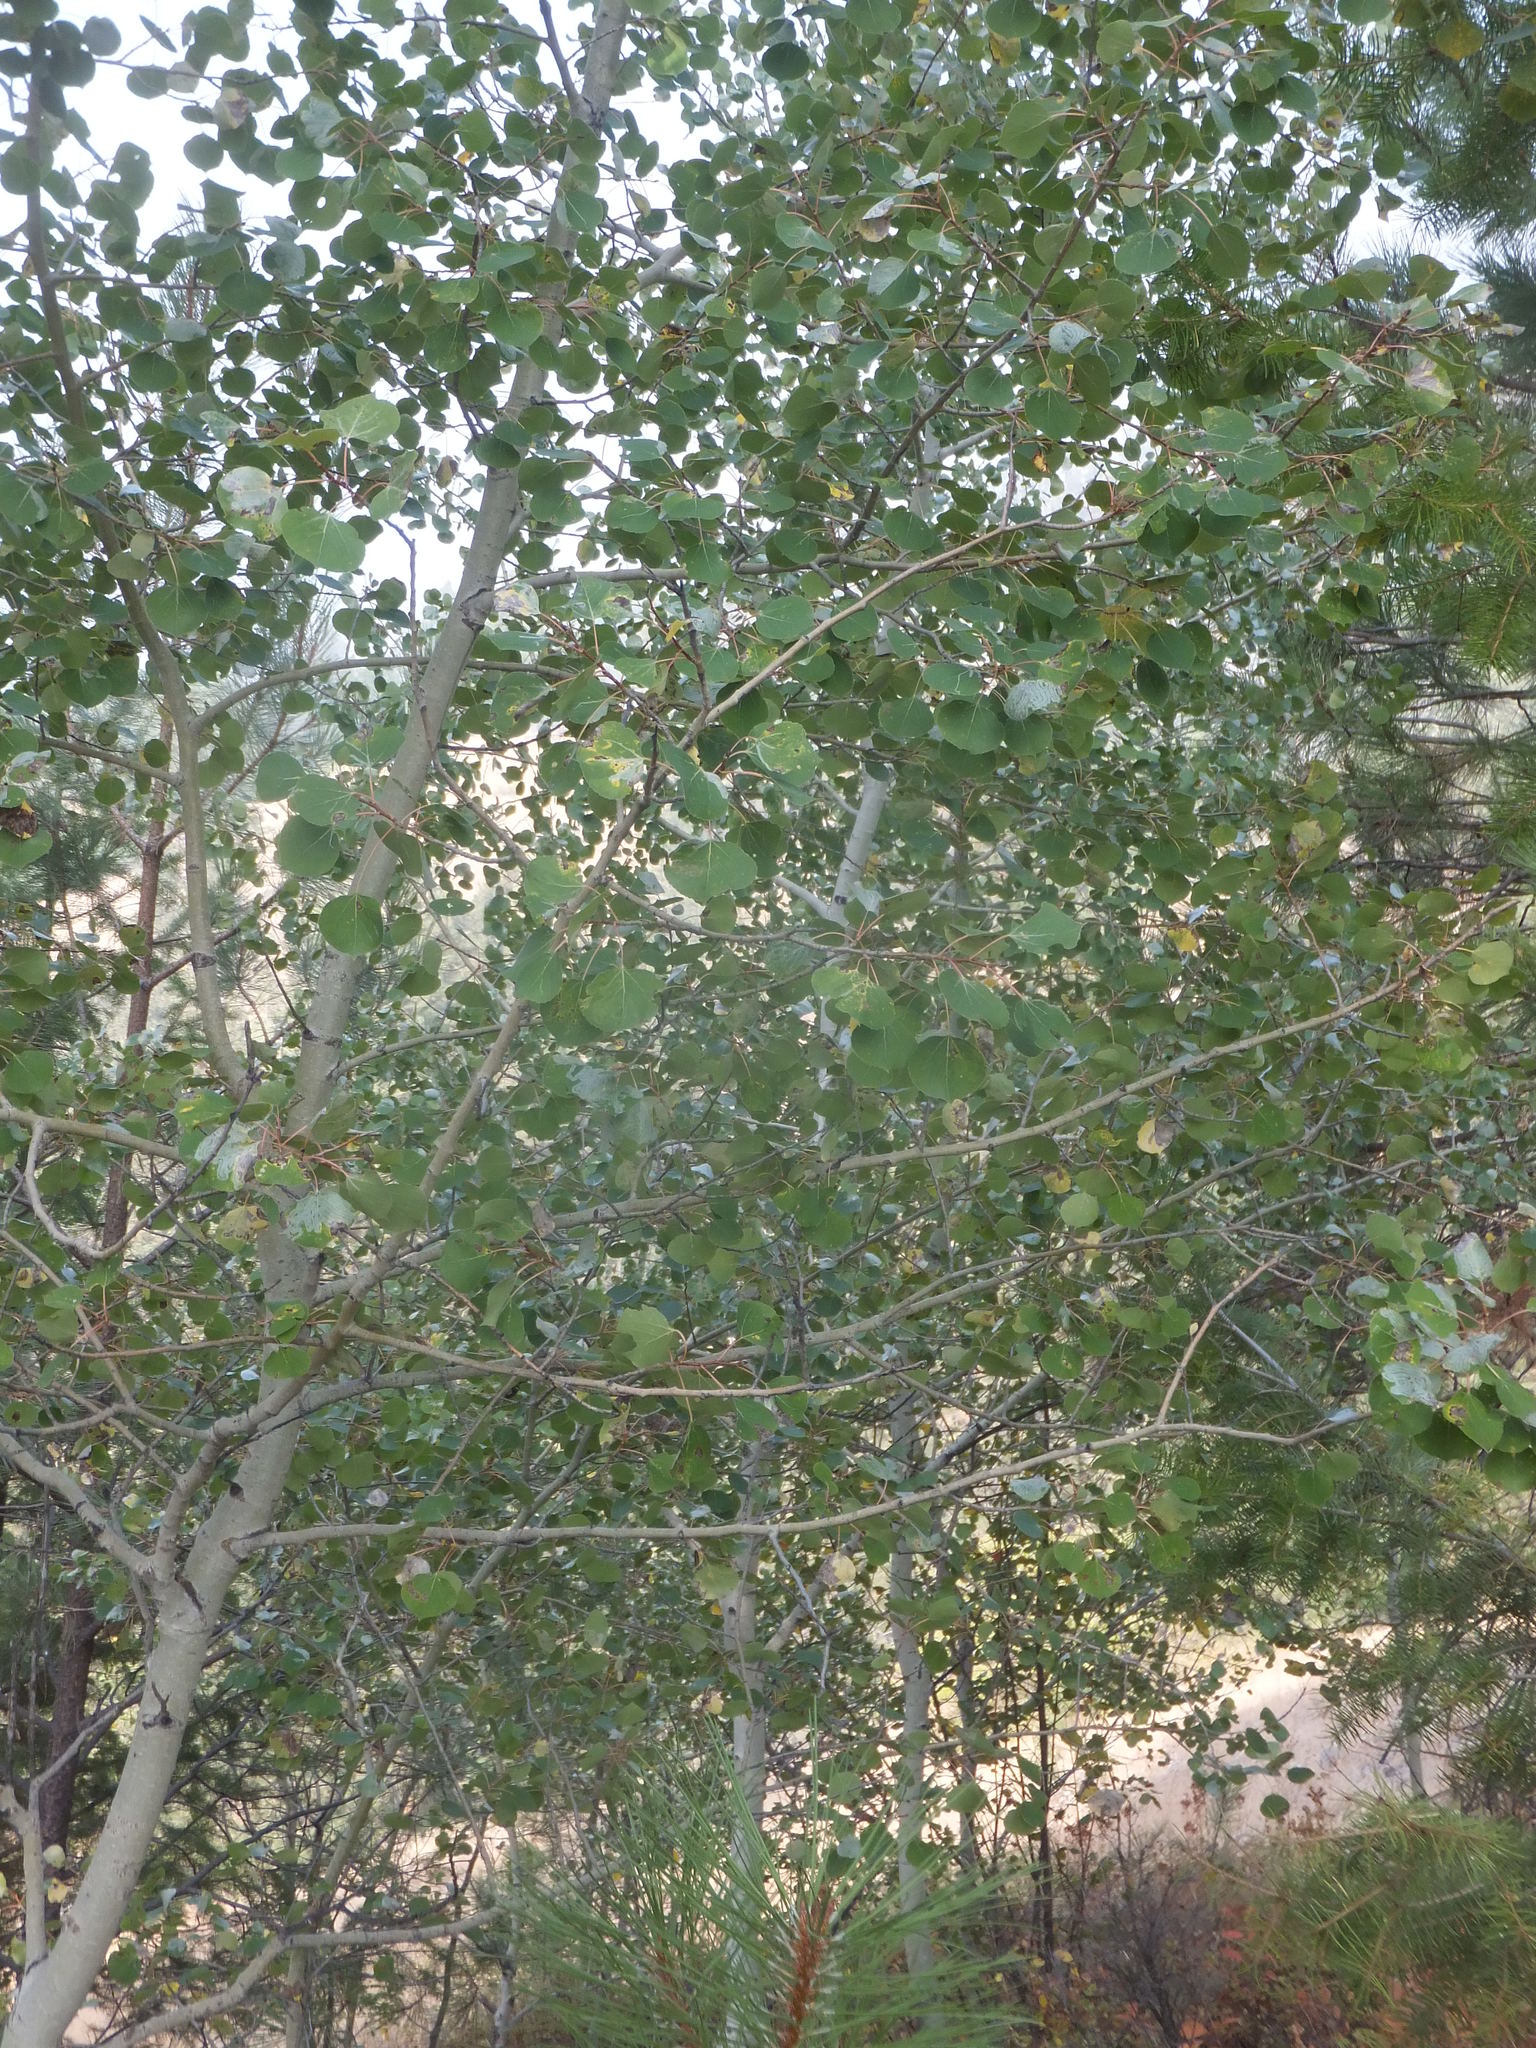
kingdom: Plantae
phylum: Tracheophyta
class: Magnoliopsida
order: Malpighiales
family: Salicaceae
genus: Populus
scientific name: Populus tremuloides
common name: Quaking aspen
